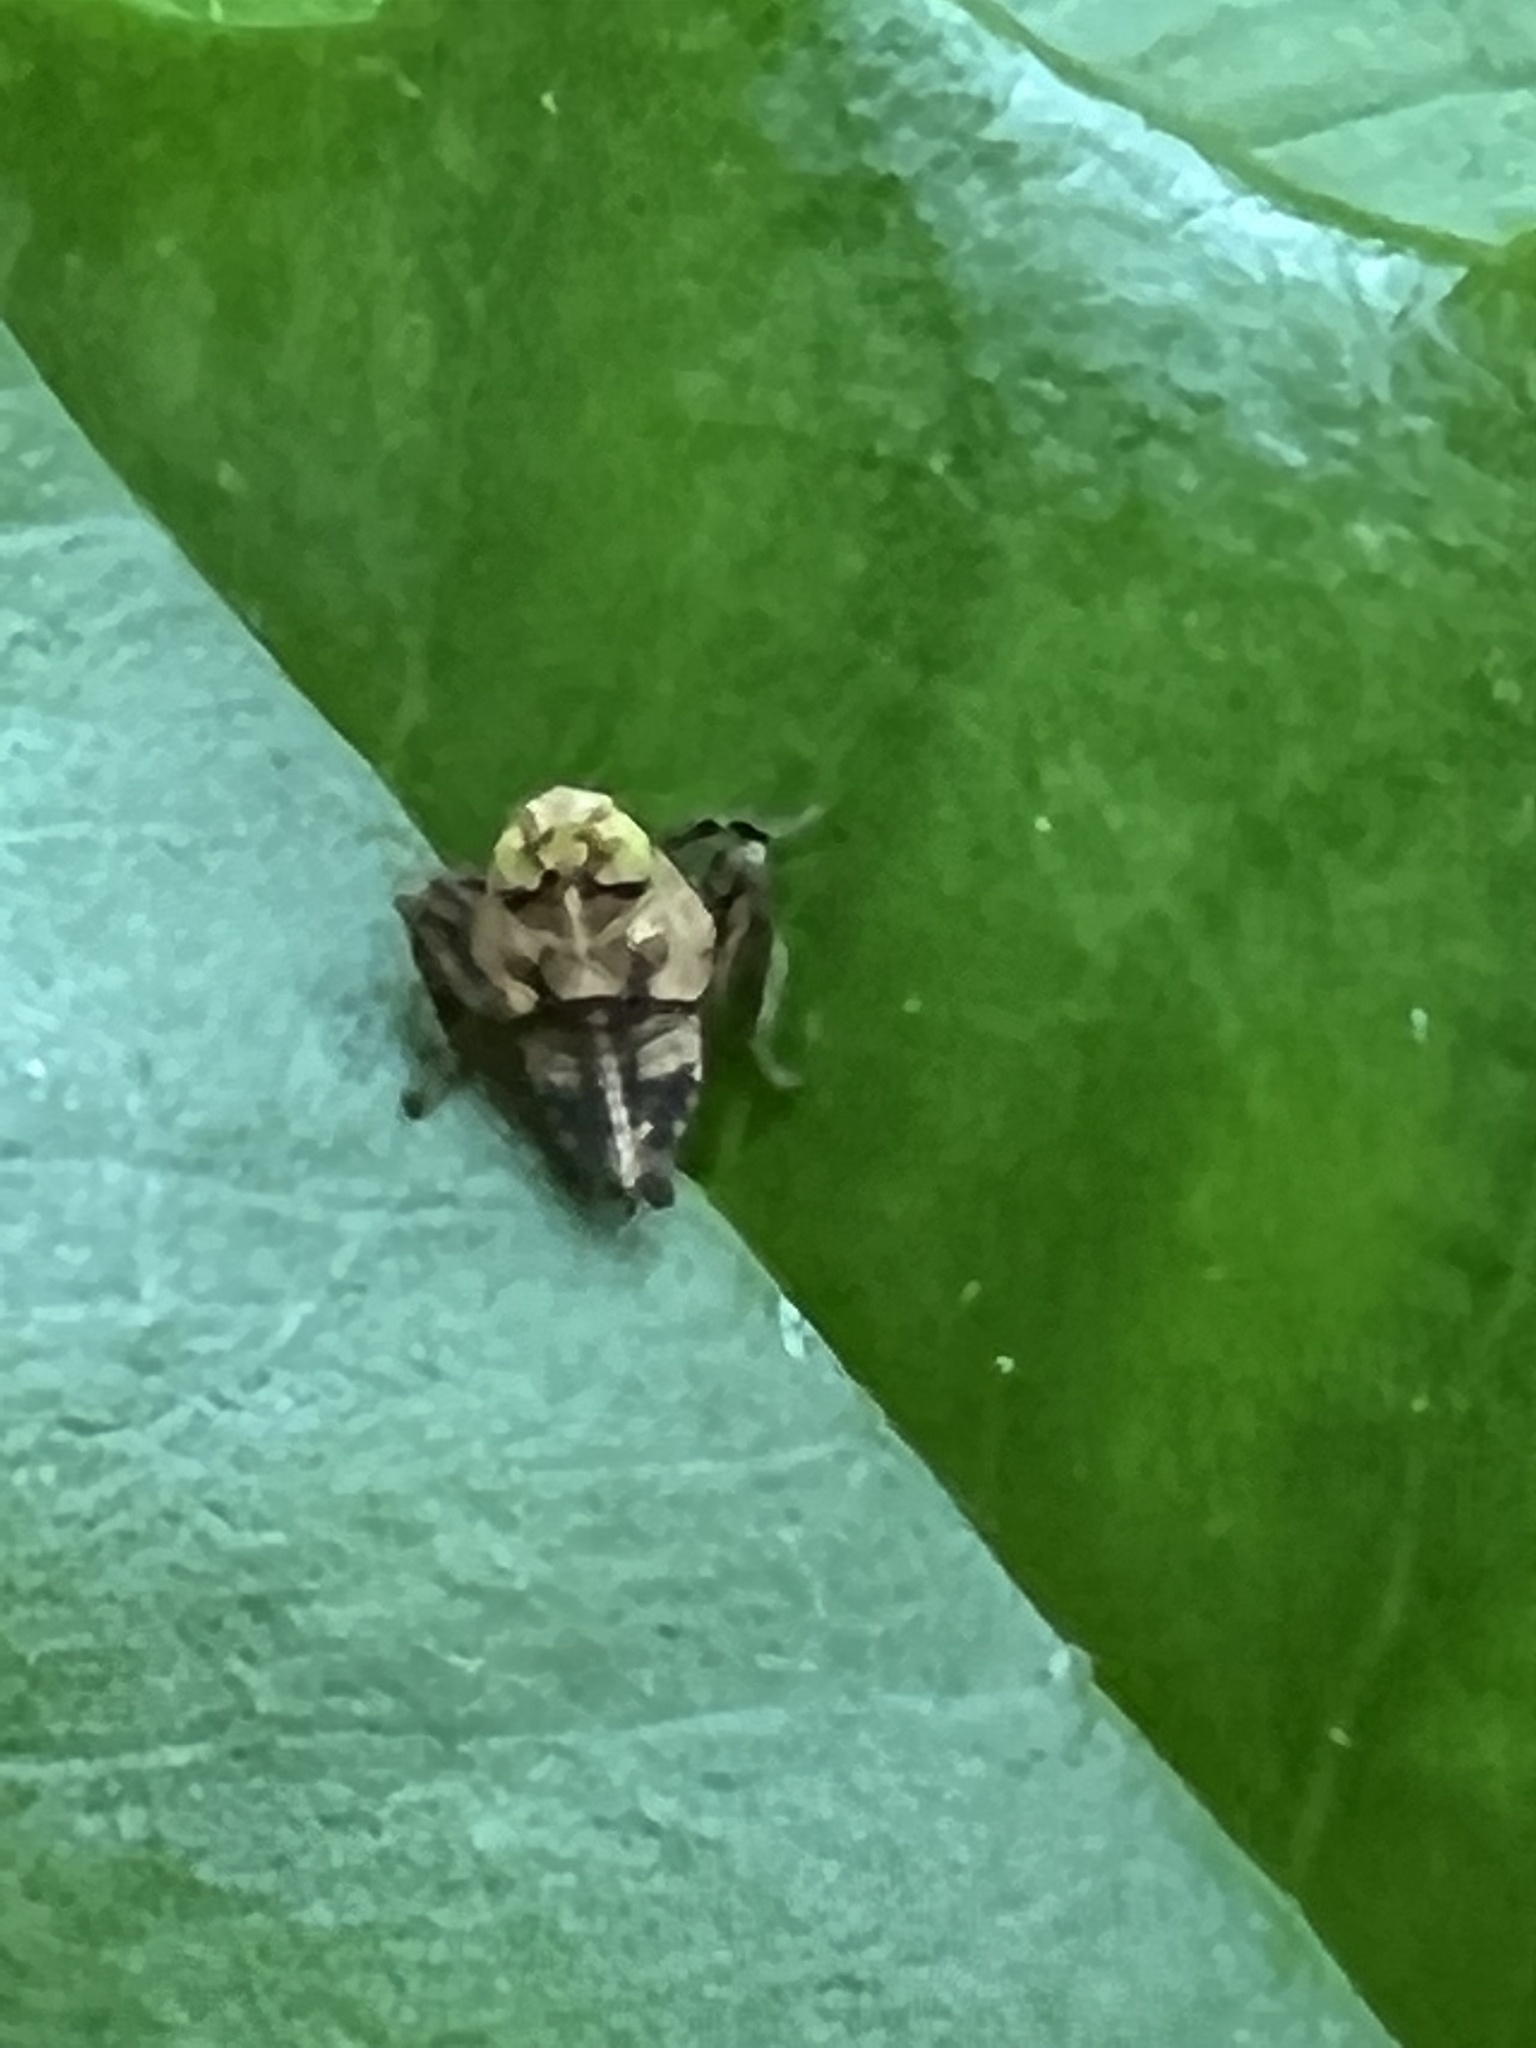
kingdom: Animalia
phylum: Arthropoda
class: Insecta
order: Hemiptera
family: Cicadellidae
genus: Jikradia
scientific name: Jikradia olitoria
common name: Coppery leafhopper
